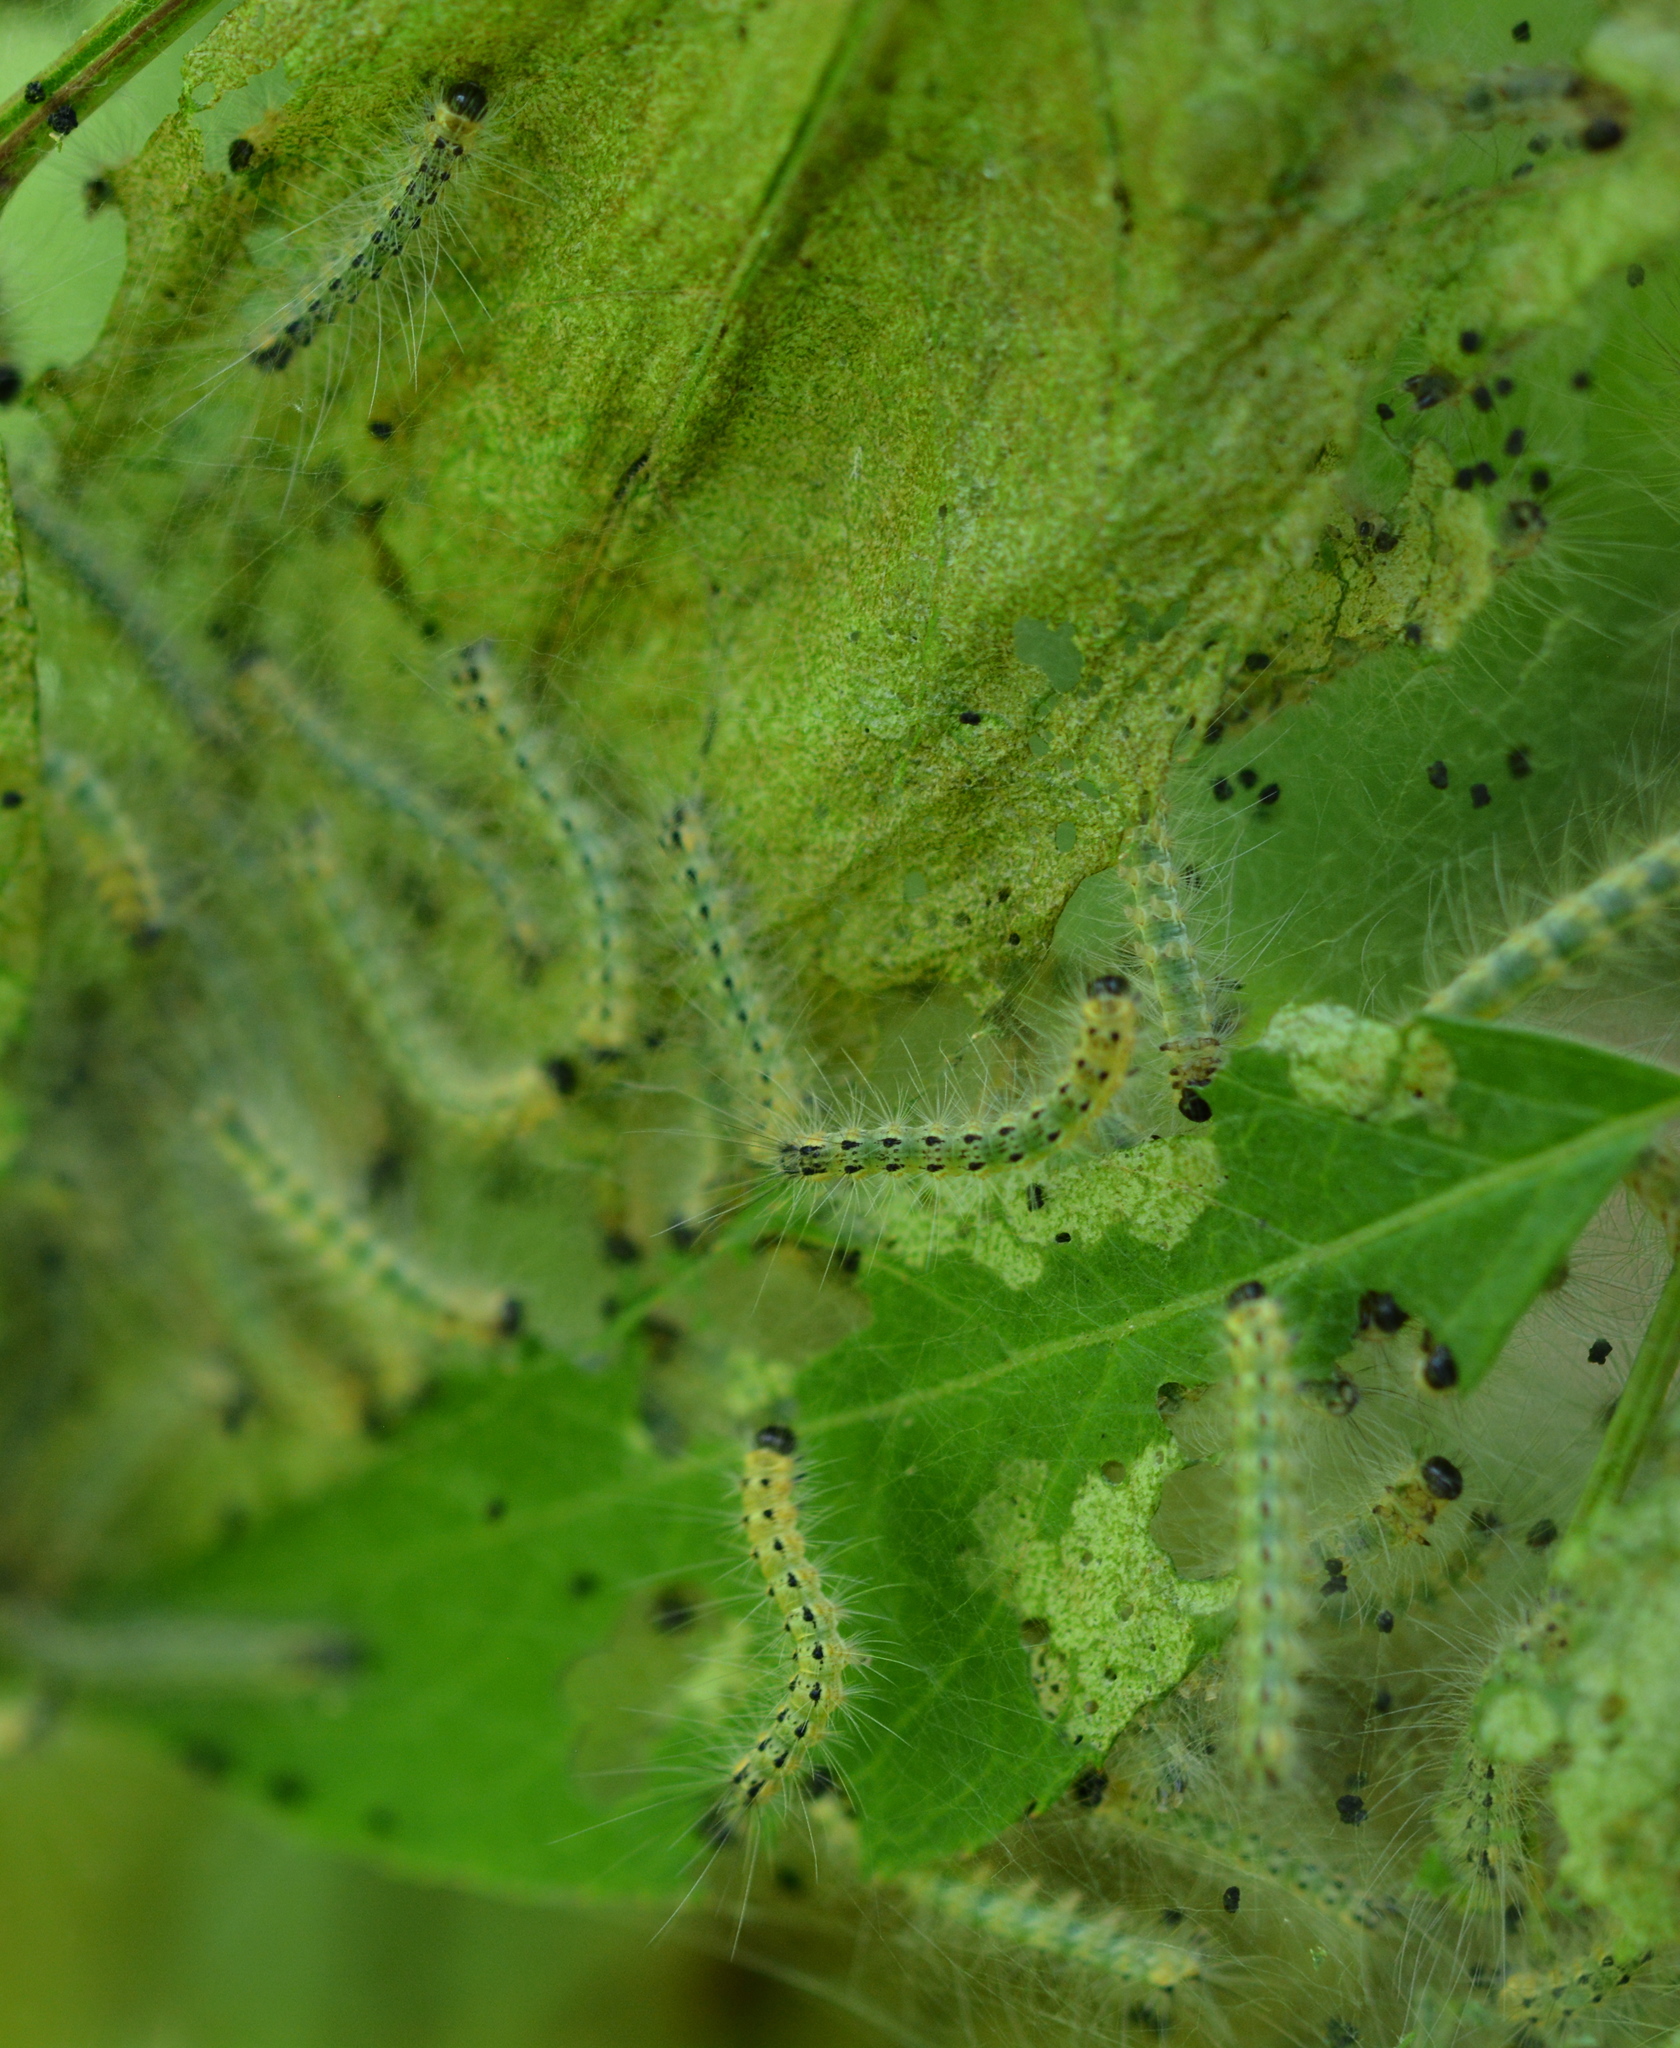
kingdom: Animalia
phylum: Arthropoda
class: Insecta
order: Lepidoptera
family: Erebidae
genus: Hyphantria
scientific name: Hyphantria cunea
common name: American white moth
